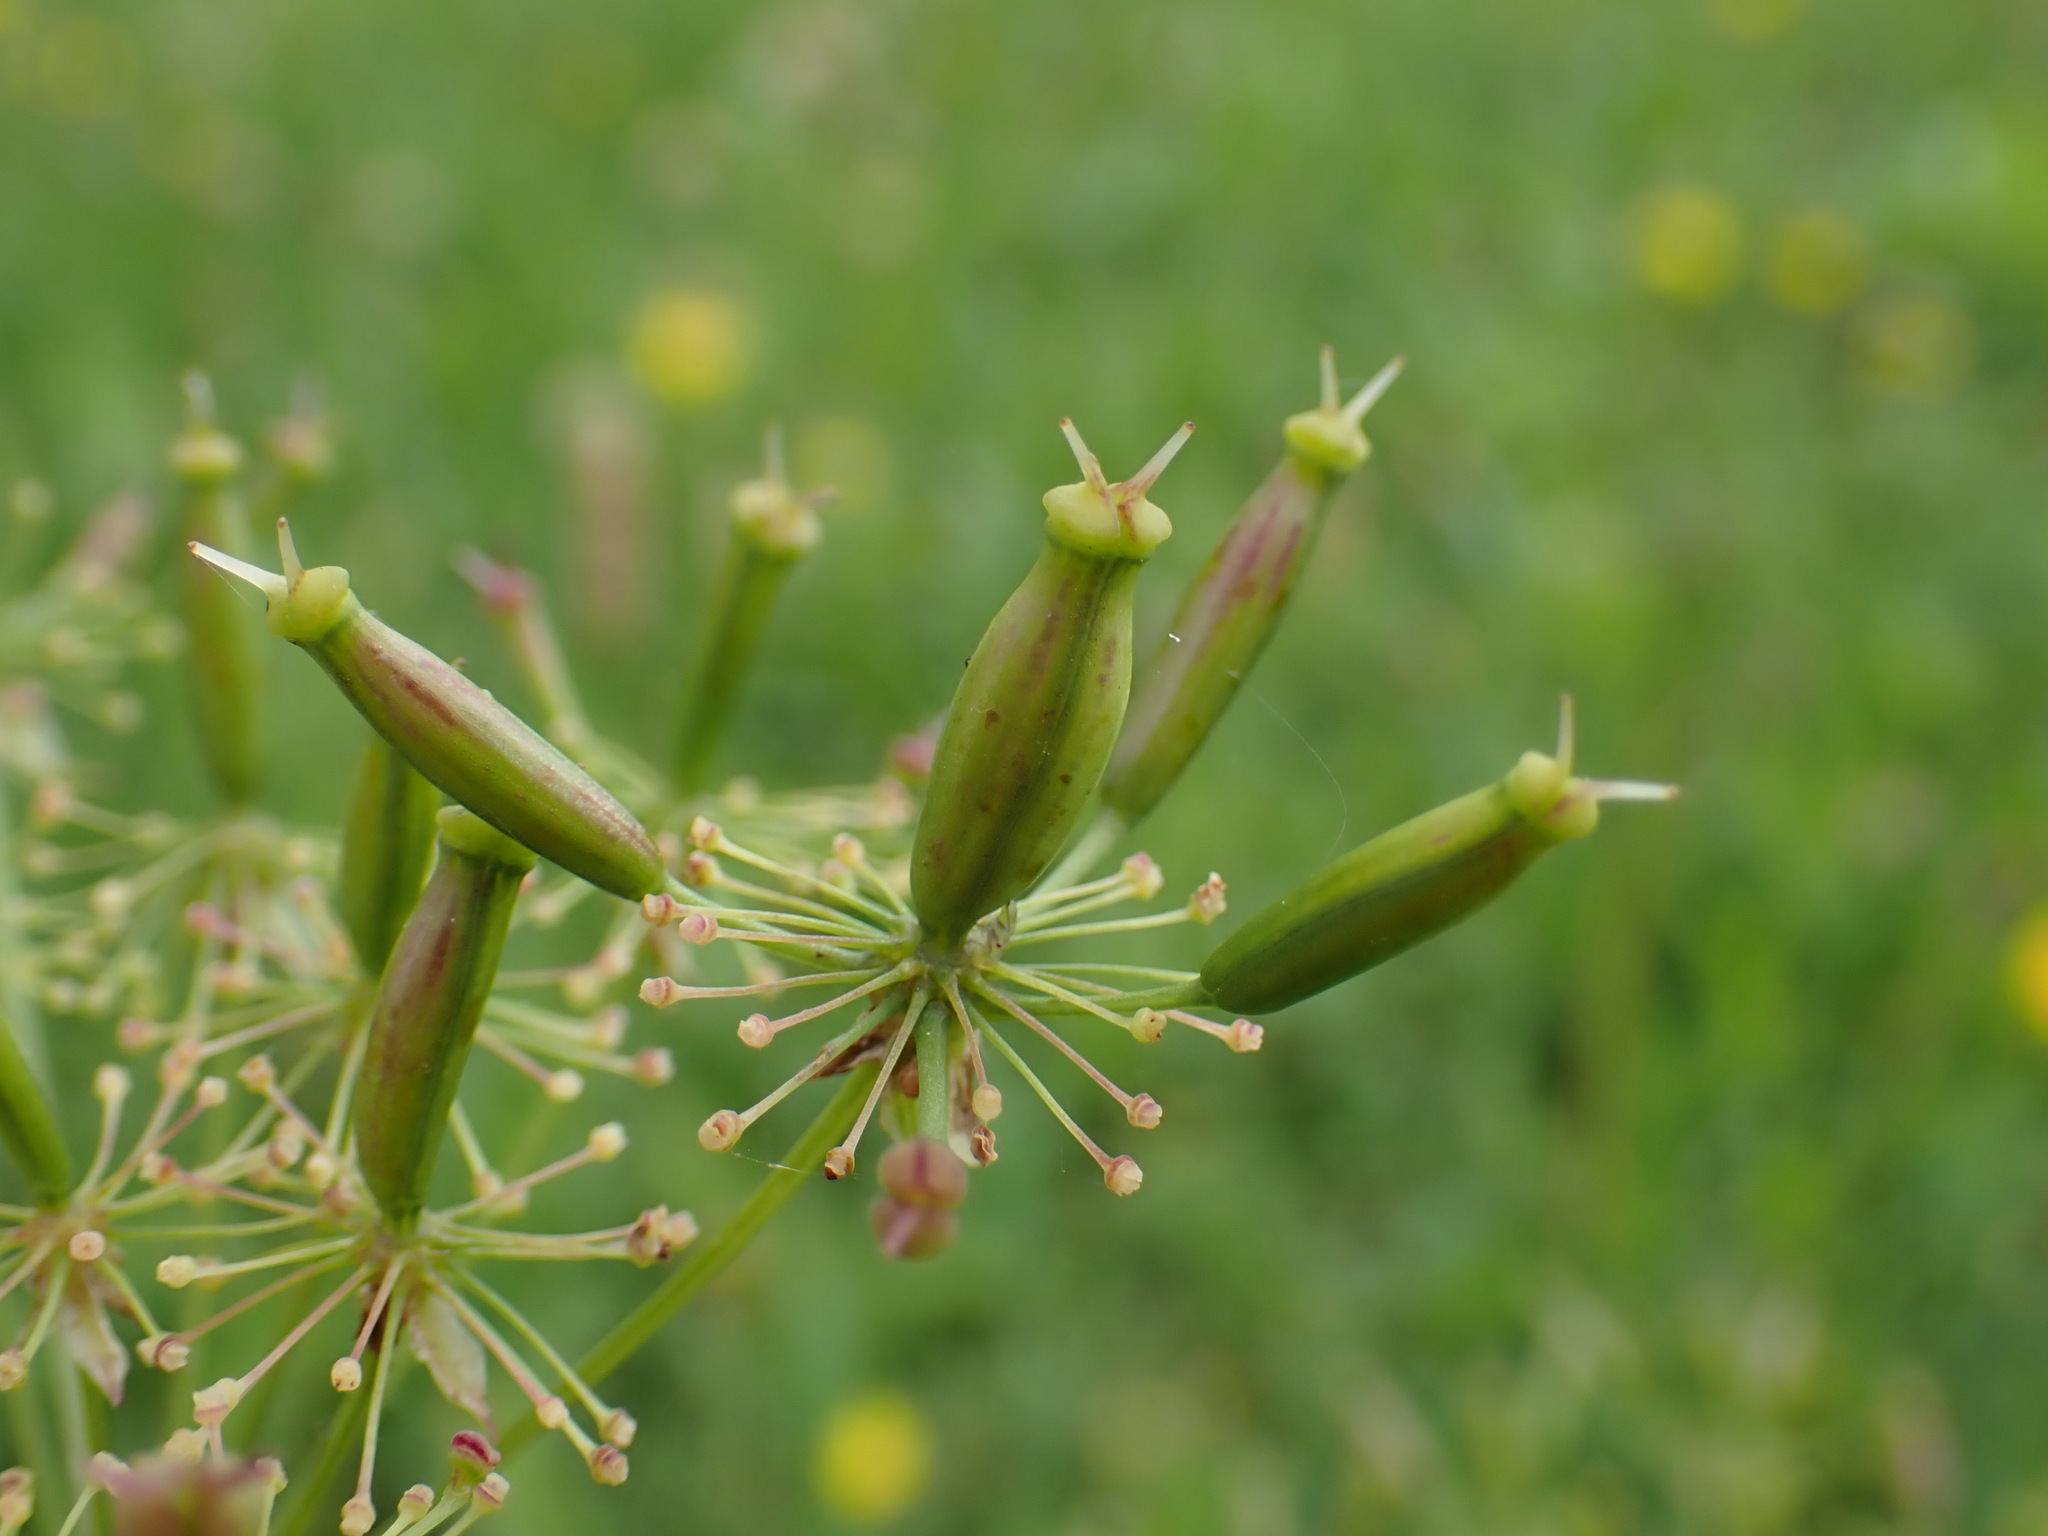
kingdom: Plantae
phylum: Tracheophyta
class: Magnoliopsida
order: Apiales
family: Apiaceae
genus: Chaerophyllum
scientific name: Chaerophyllum aromaticum
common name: Broadleaf chervil
